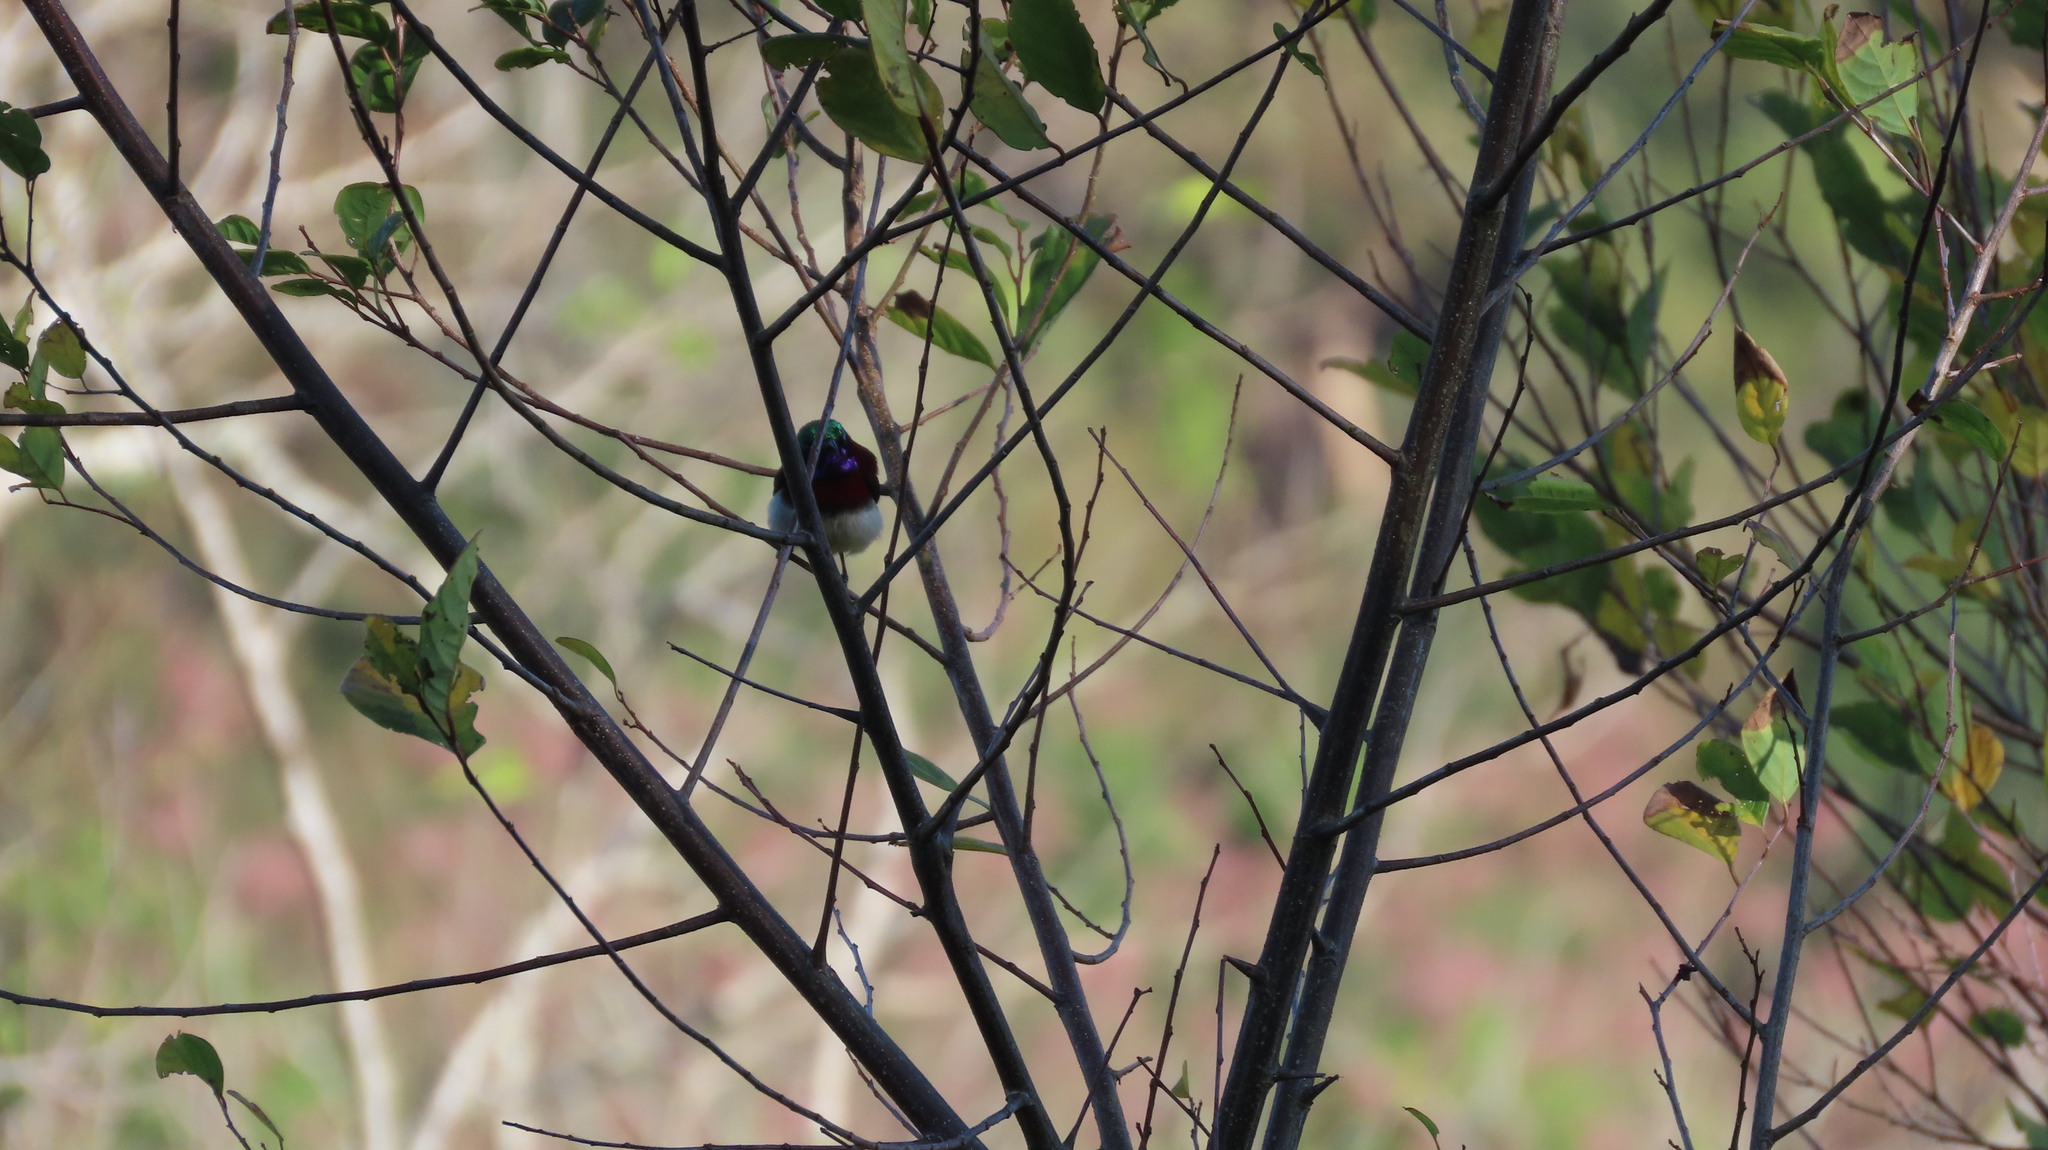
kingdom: Animalia
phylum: Chordata
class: Aves
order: Passeriformes
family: Nectariniidae
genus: Leptocoma
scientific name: Leptocoma minima
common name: Crimson-backed sunbird
